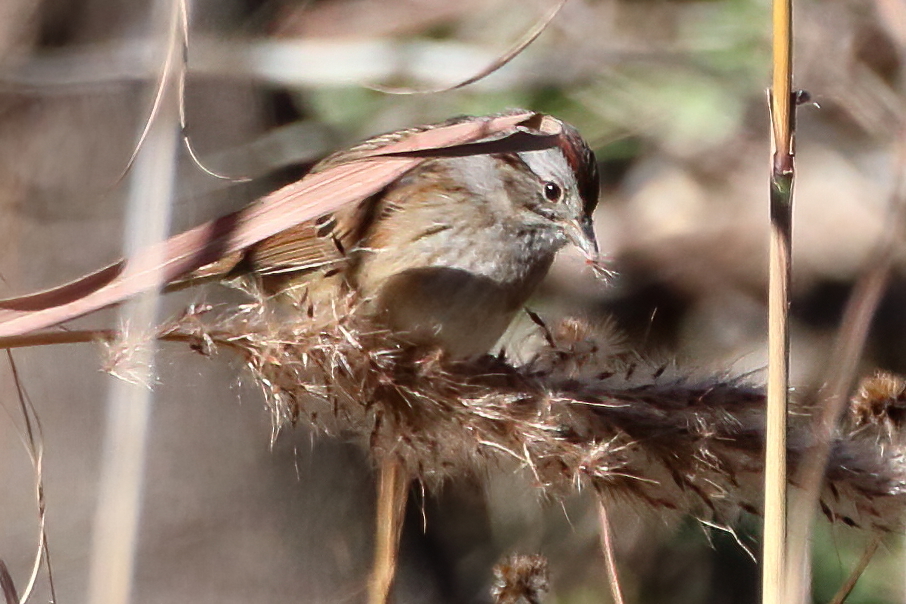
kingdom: Animalia
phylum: Chordata
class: Aves
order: Passeriformes
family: Passerellidae
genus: Melospiza
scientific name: Melospiza georgiana
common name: Swamp sparrow
